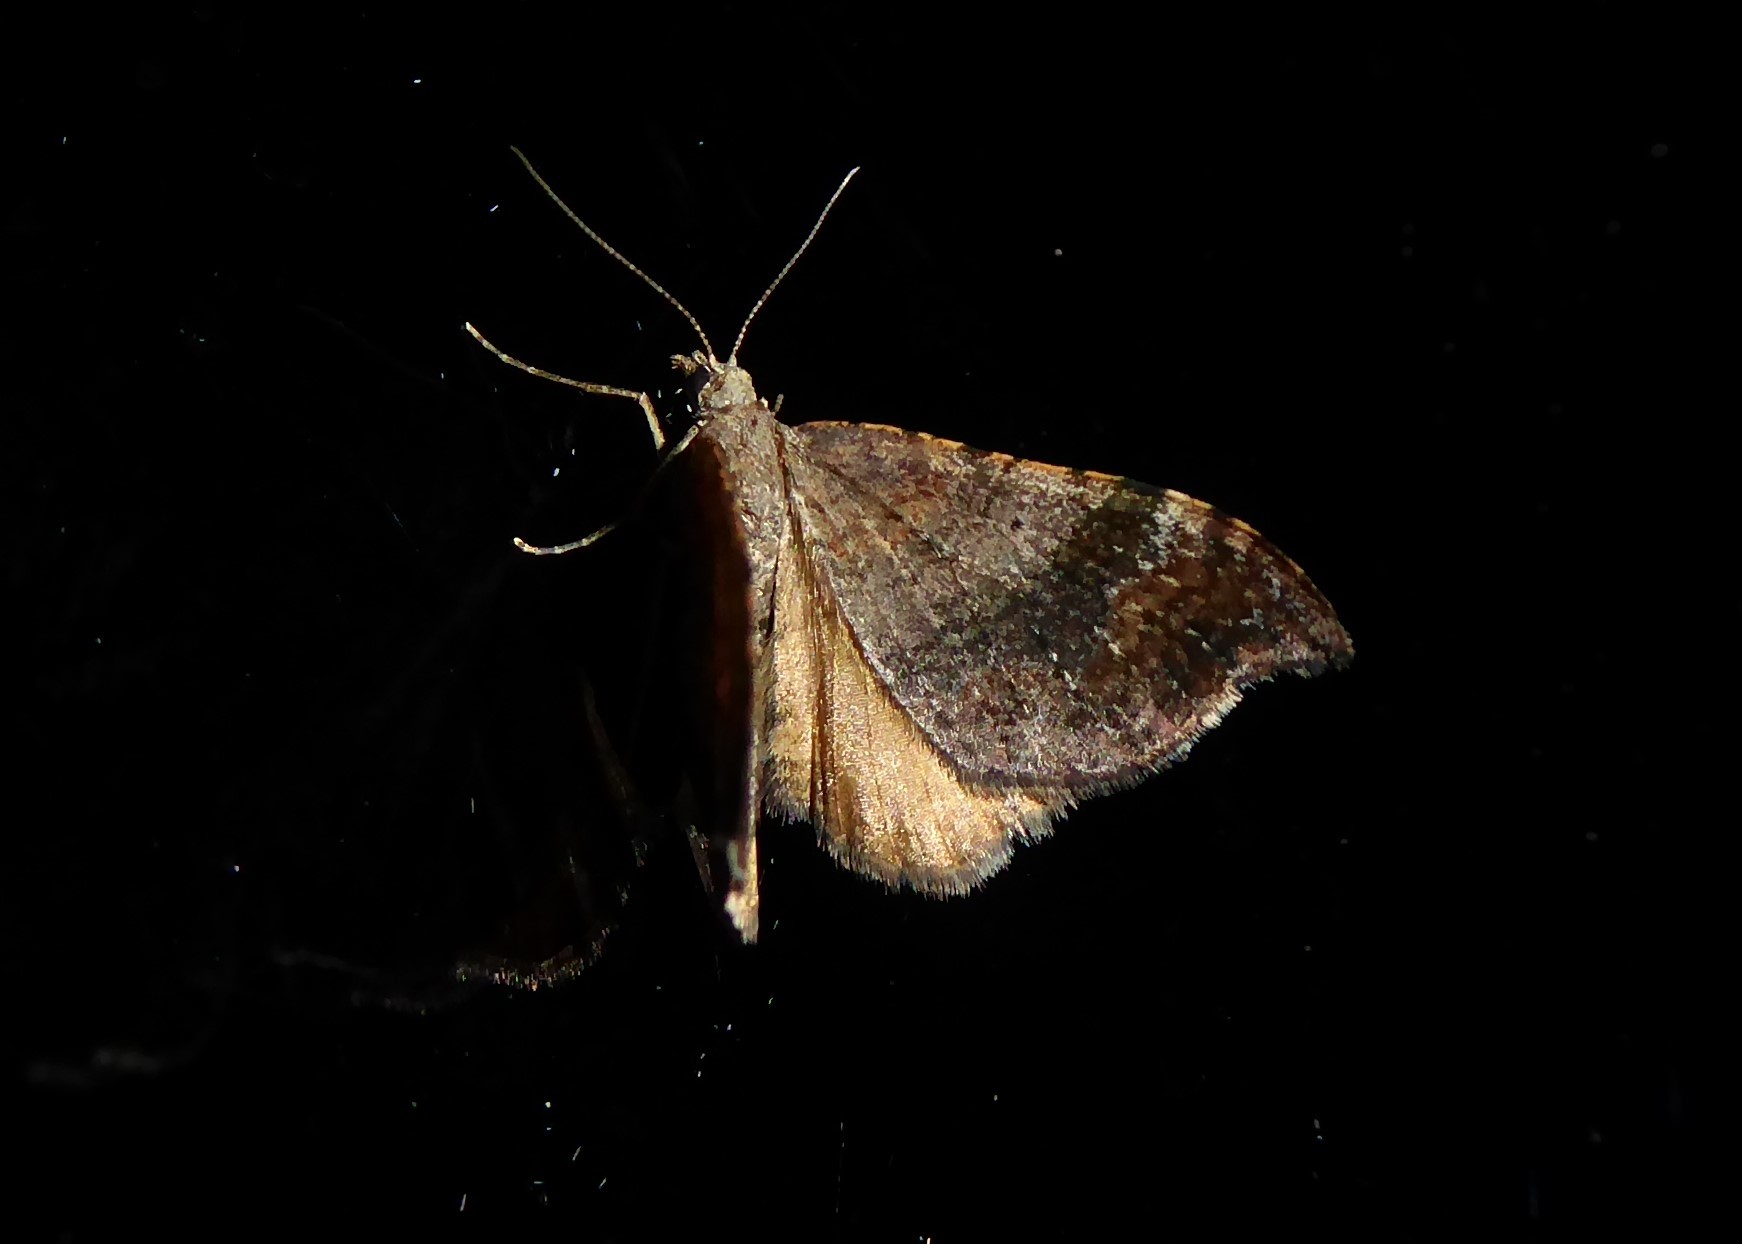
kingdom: Animalia
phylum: Arthropoda
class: Insecta
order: Lepidoptera
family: Geometridae
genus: Homodotis
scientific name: Homodotis megaspilata
